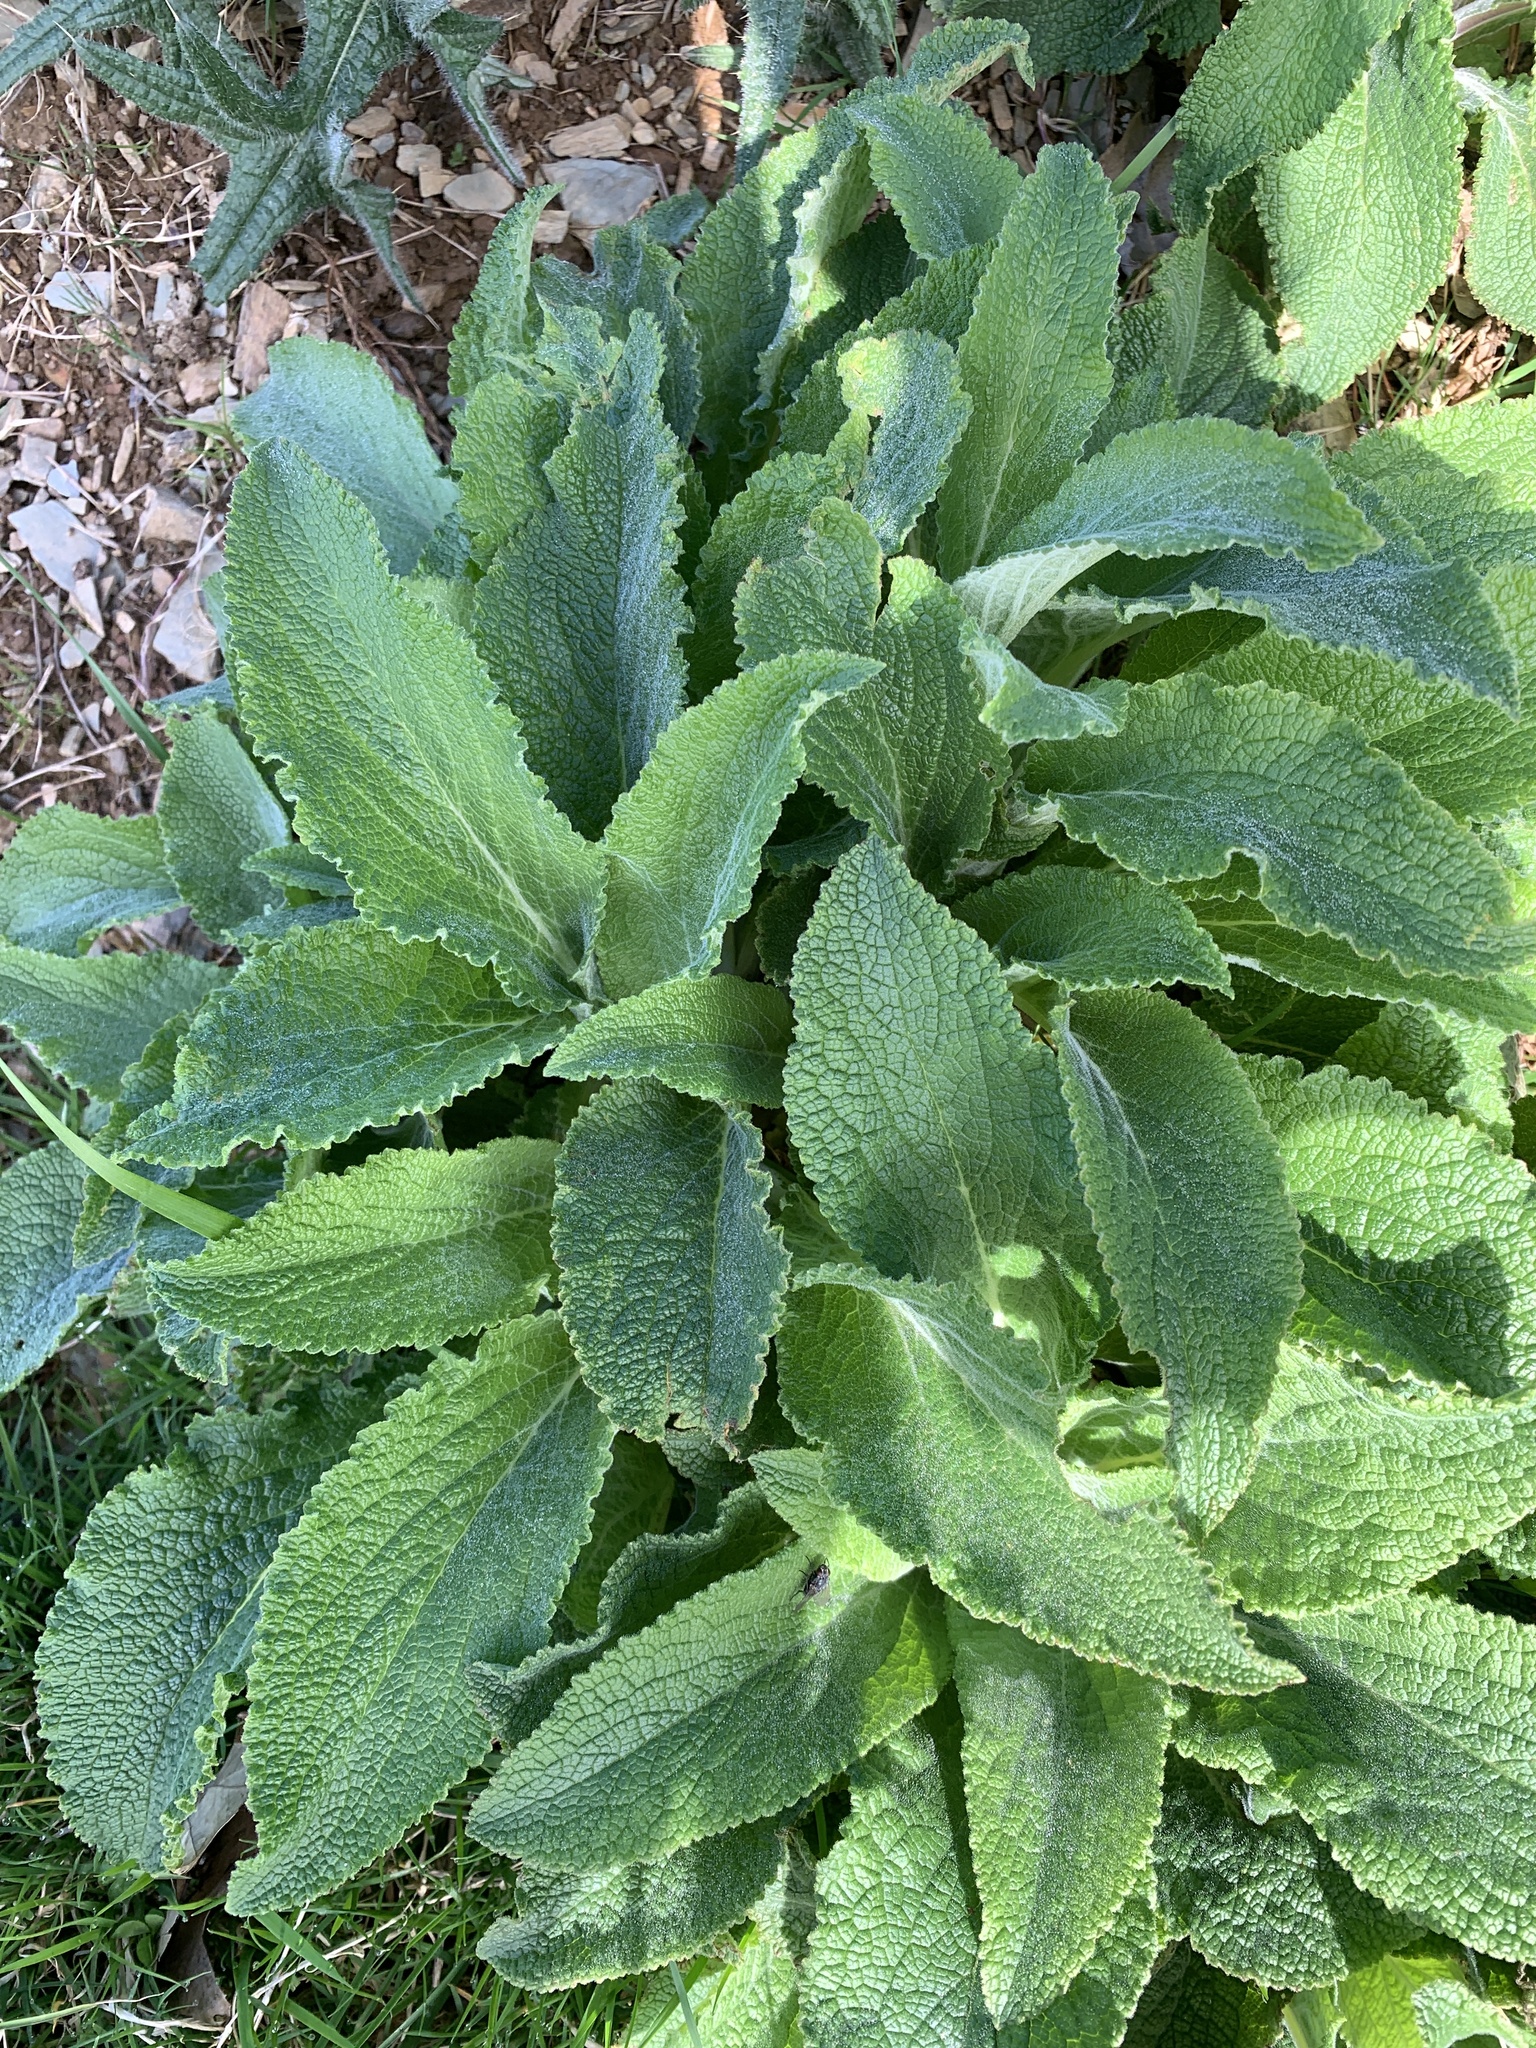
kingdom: Plantae
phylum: Tracheophyta
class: Magnoliopsida
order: Lamiales
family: Plantaginaceae
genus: Digitalis
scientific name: Digitalis purpurea
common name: Foxglove
